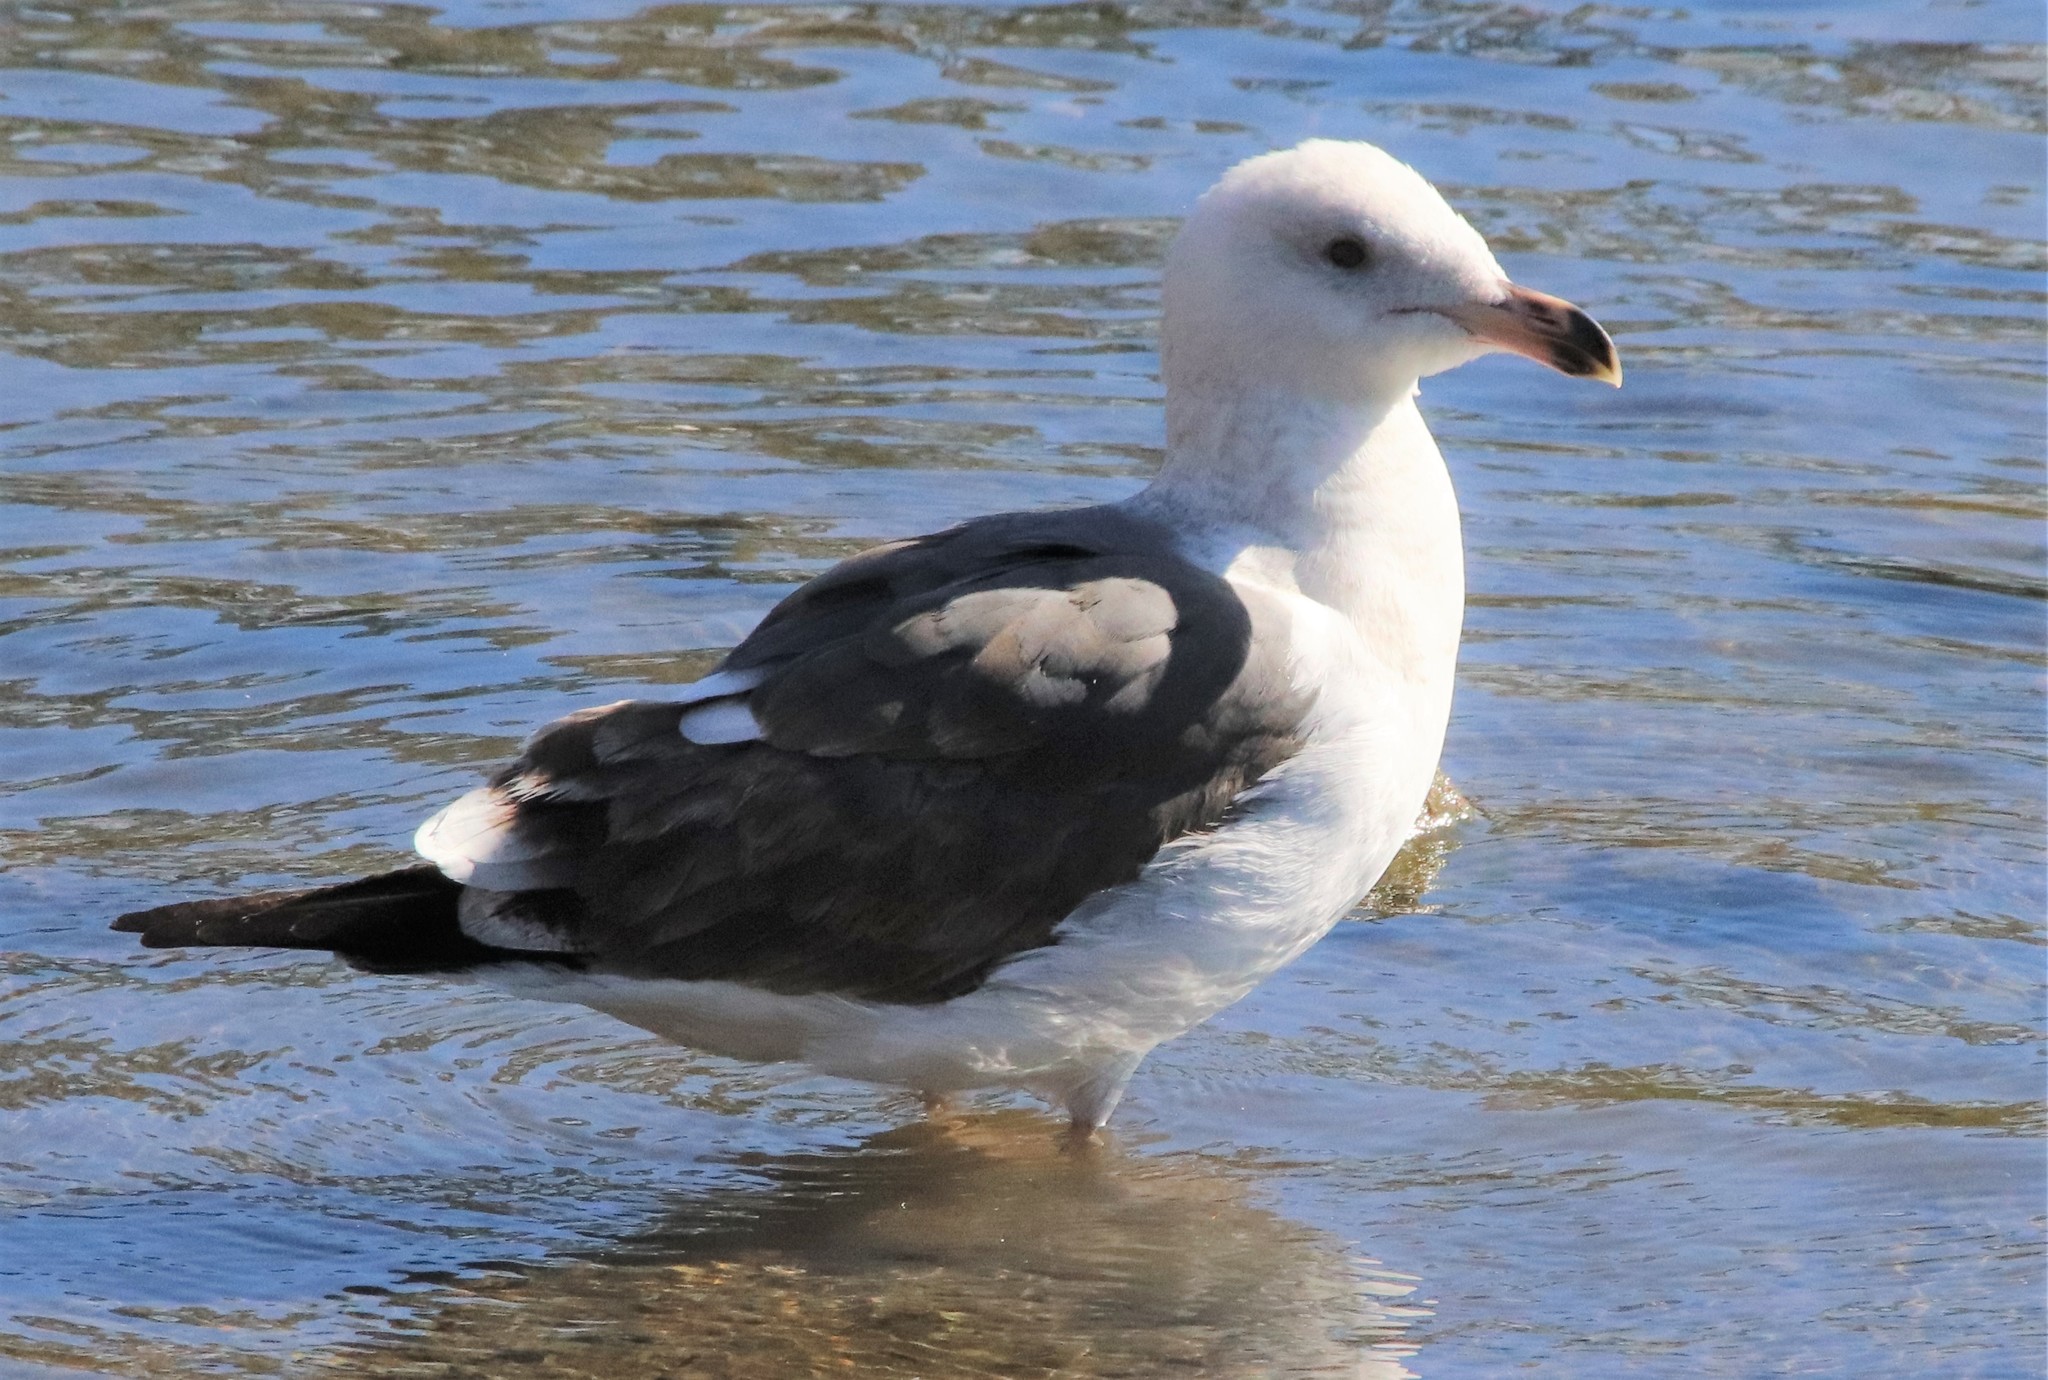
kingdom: Animalia
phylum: Chordata
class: Aves
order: Charadriiformes
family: Laridae
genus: Larus
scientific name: Larus occidentalis
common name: Western gull
